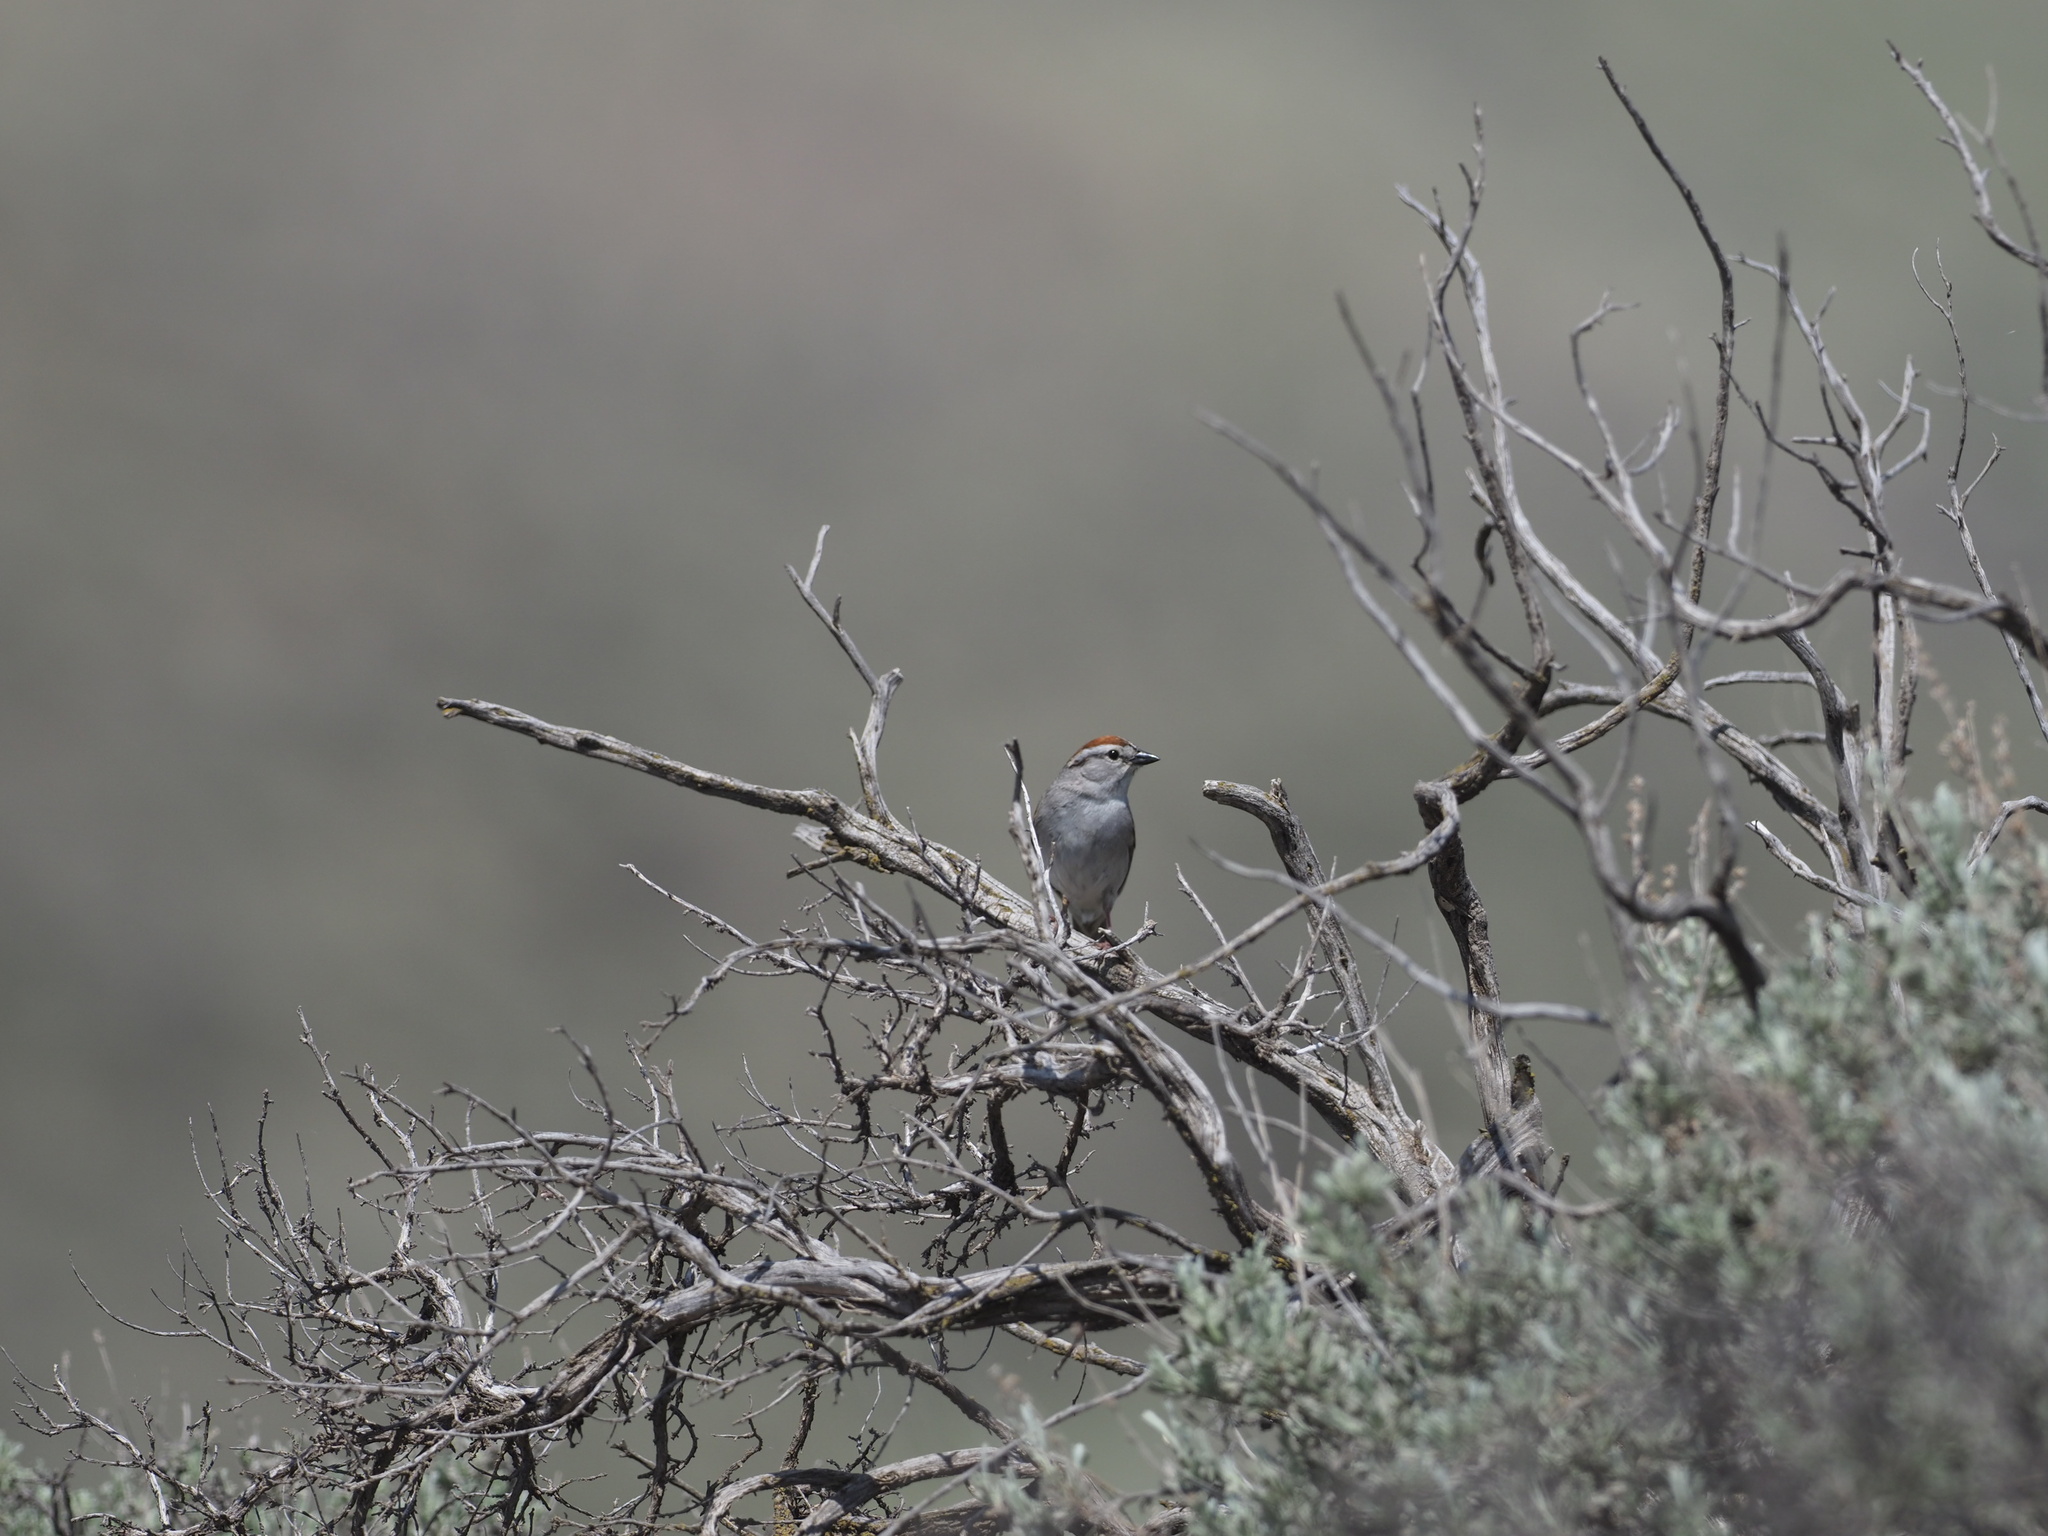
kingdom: Animalia
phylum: Chordata
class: Aves
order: Passeriformes
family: Passerellidae
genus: Spizella
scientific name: Spizella passerina
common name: Chipping sparrow
